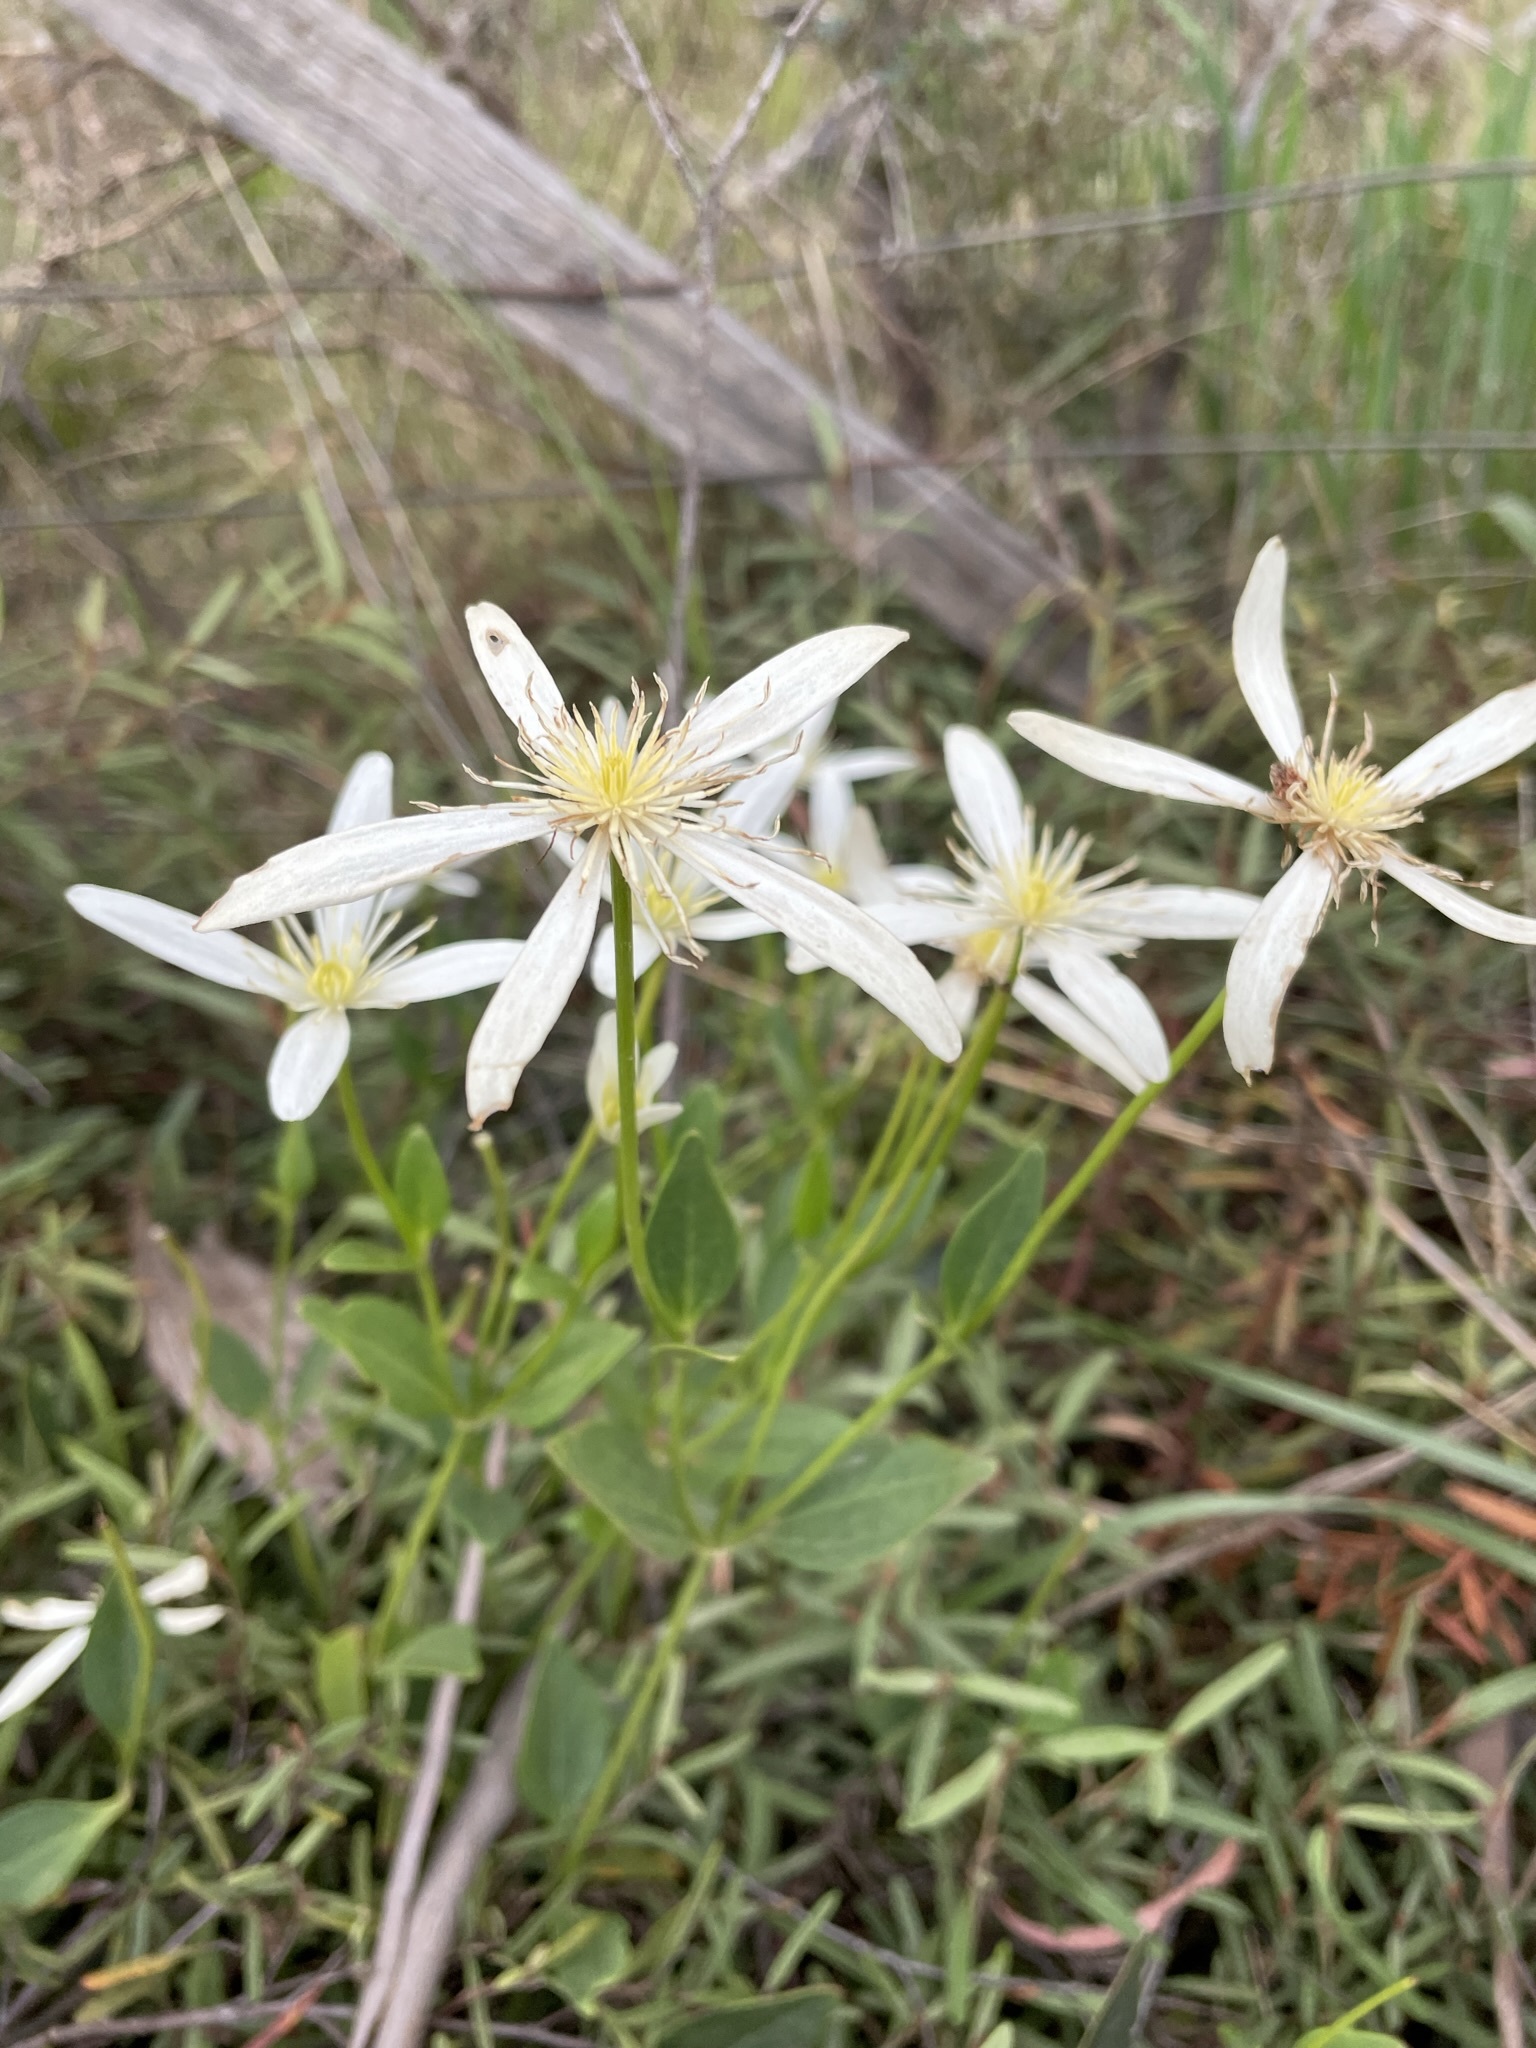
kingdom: Plantae
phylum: Tracheophyta
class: Magnoliopsida
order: Ranunculales
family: Ranunculaceae
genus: Clematis
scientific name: Clematis gentianoides
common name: Bushy clematis
